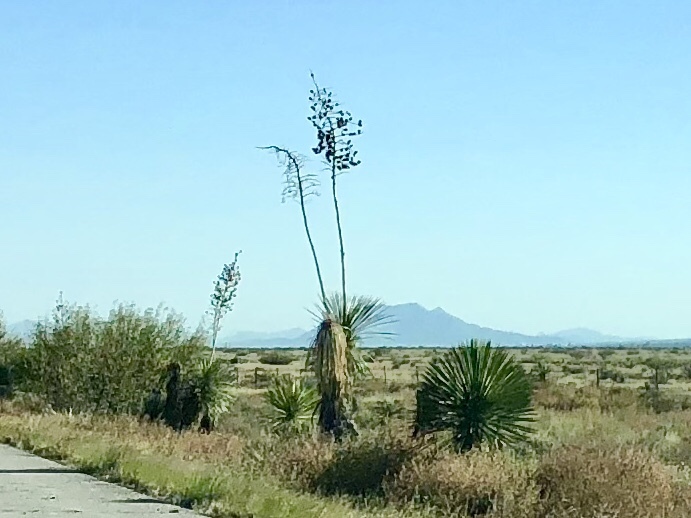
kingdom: Plantae
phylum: Tracheophyta
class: Liliopsida
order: Asparagales
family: Asparagaceae
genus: Yucca
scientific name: Yucca elata
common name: Palmella
